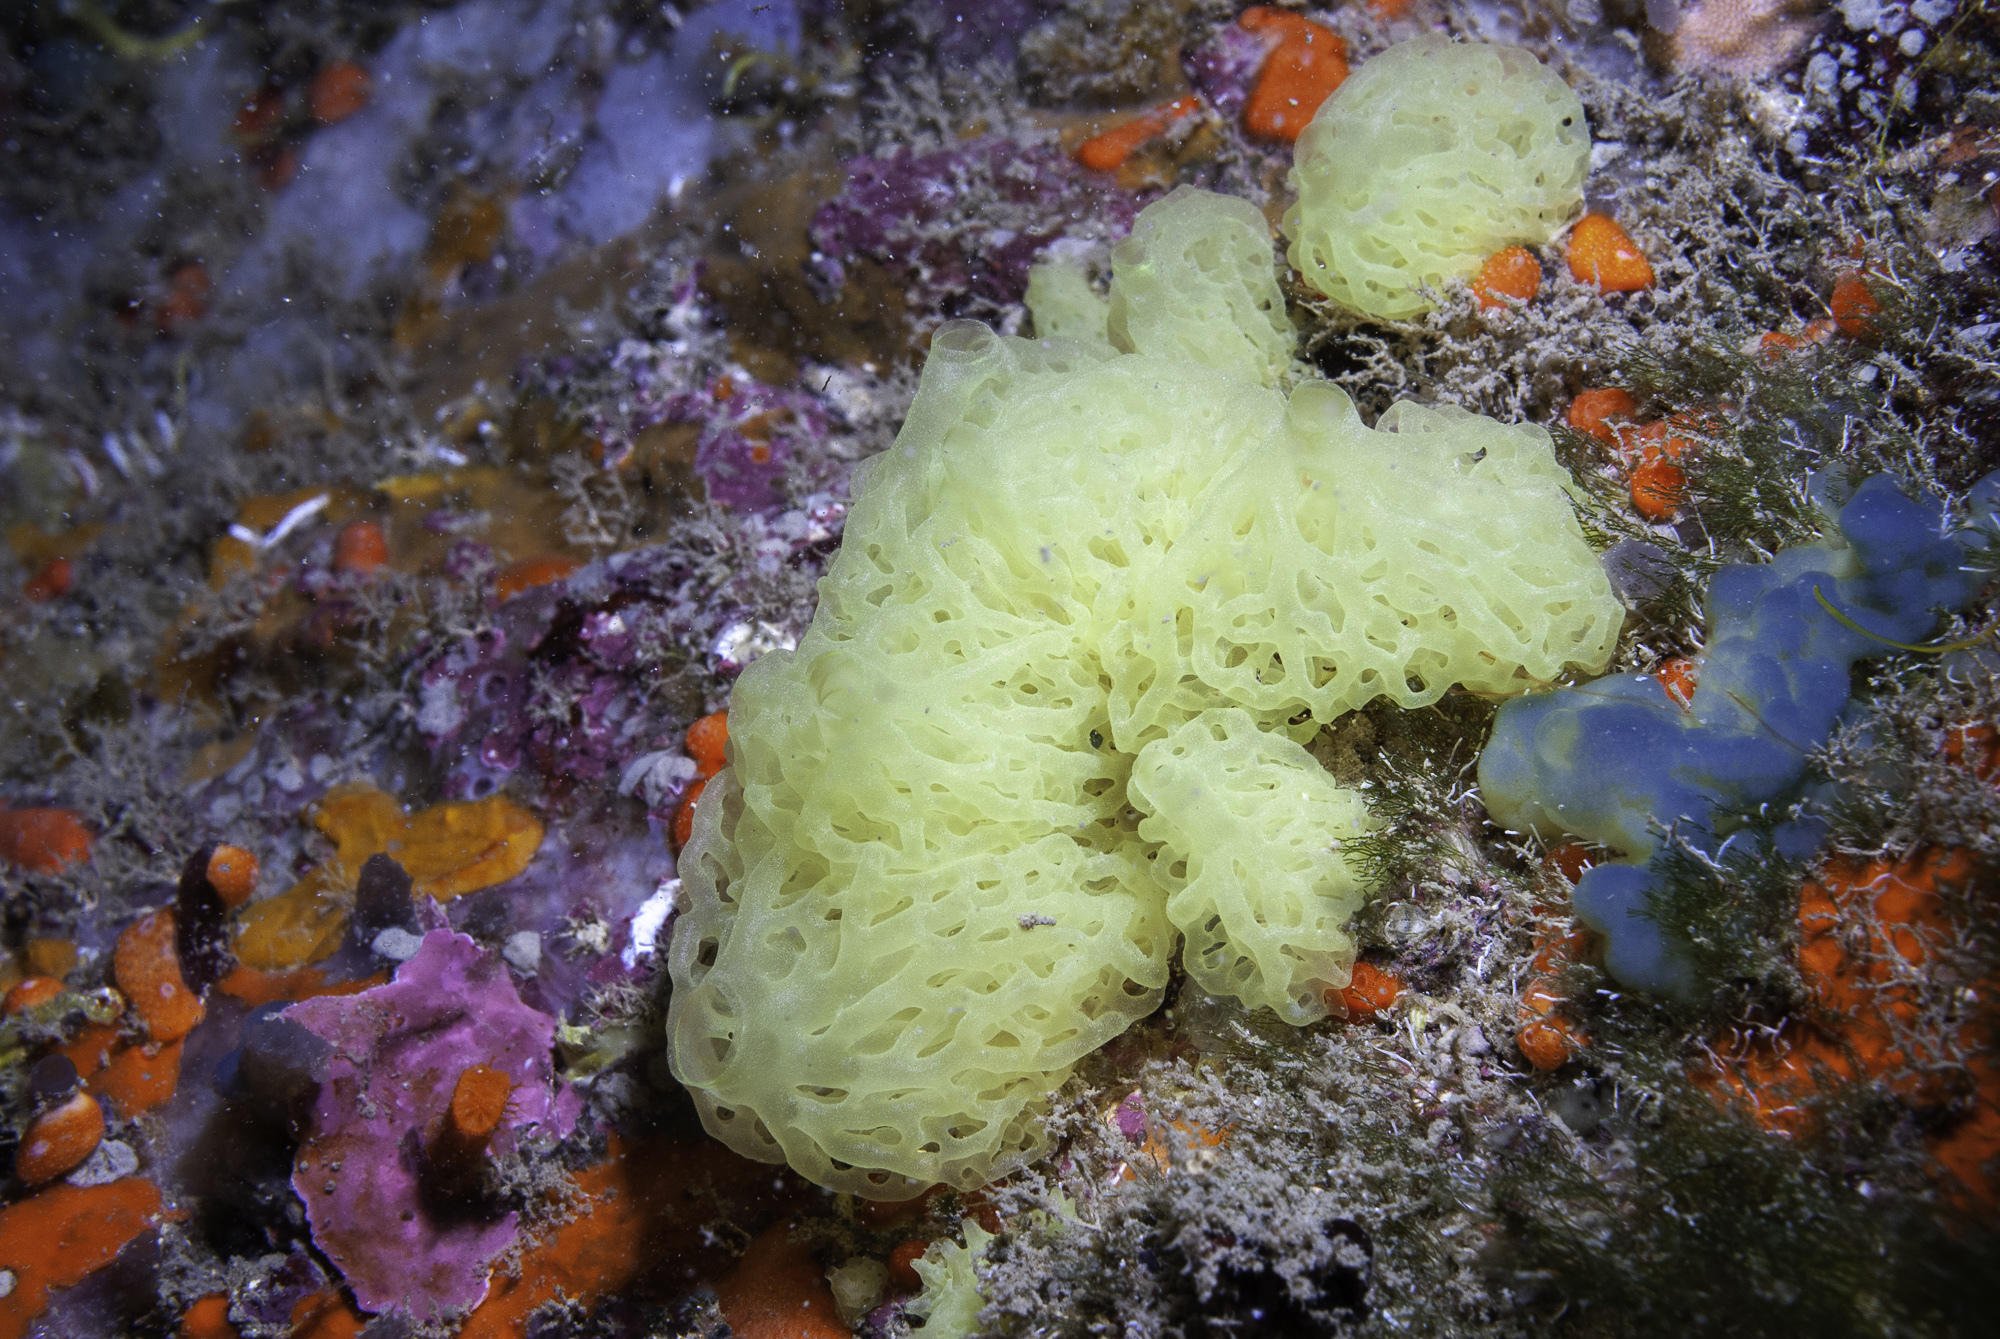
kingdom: Animalia
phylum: Porifera
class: Calcarea
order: Clathrinida
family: Clathrinidae
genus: Clathrina
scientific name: Clathrina clathrus
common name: Yellow clathrina
